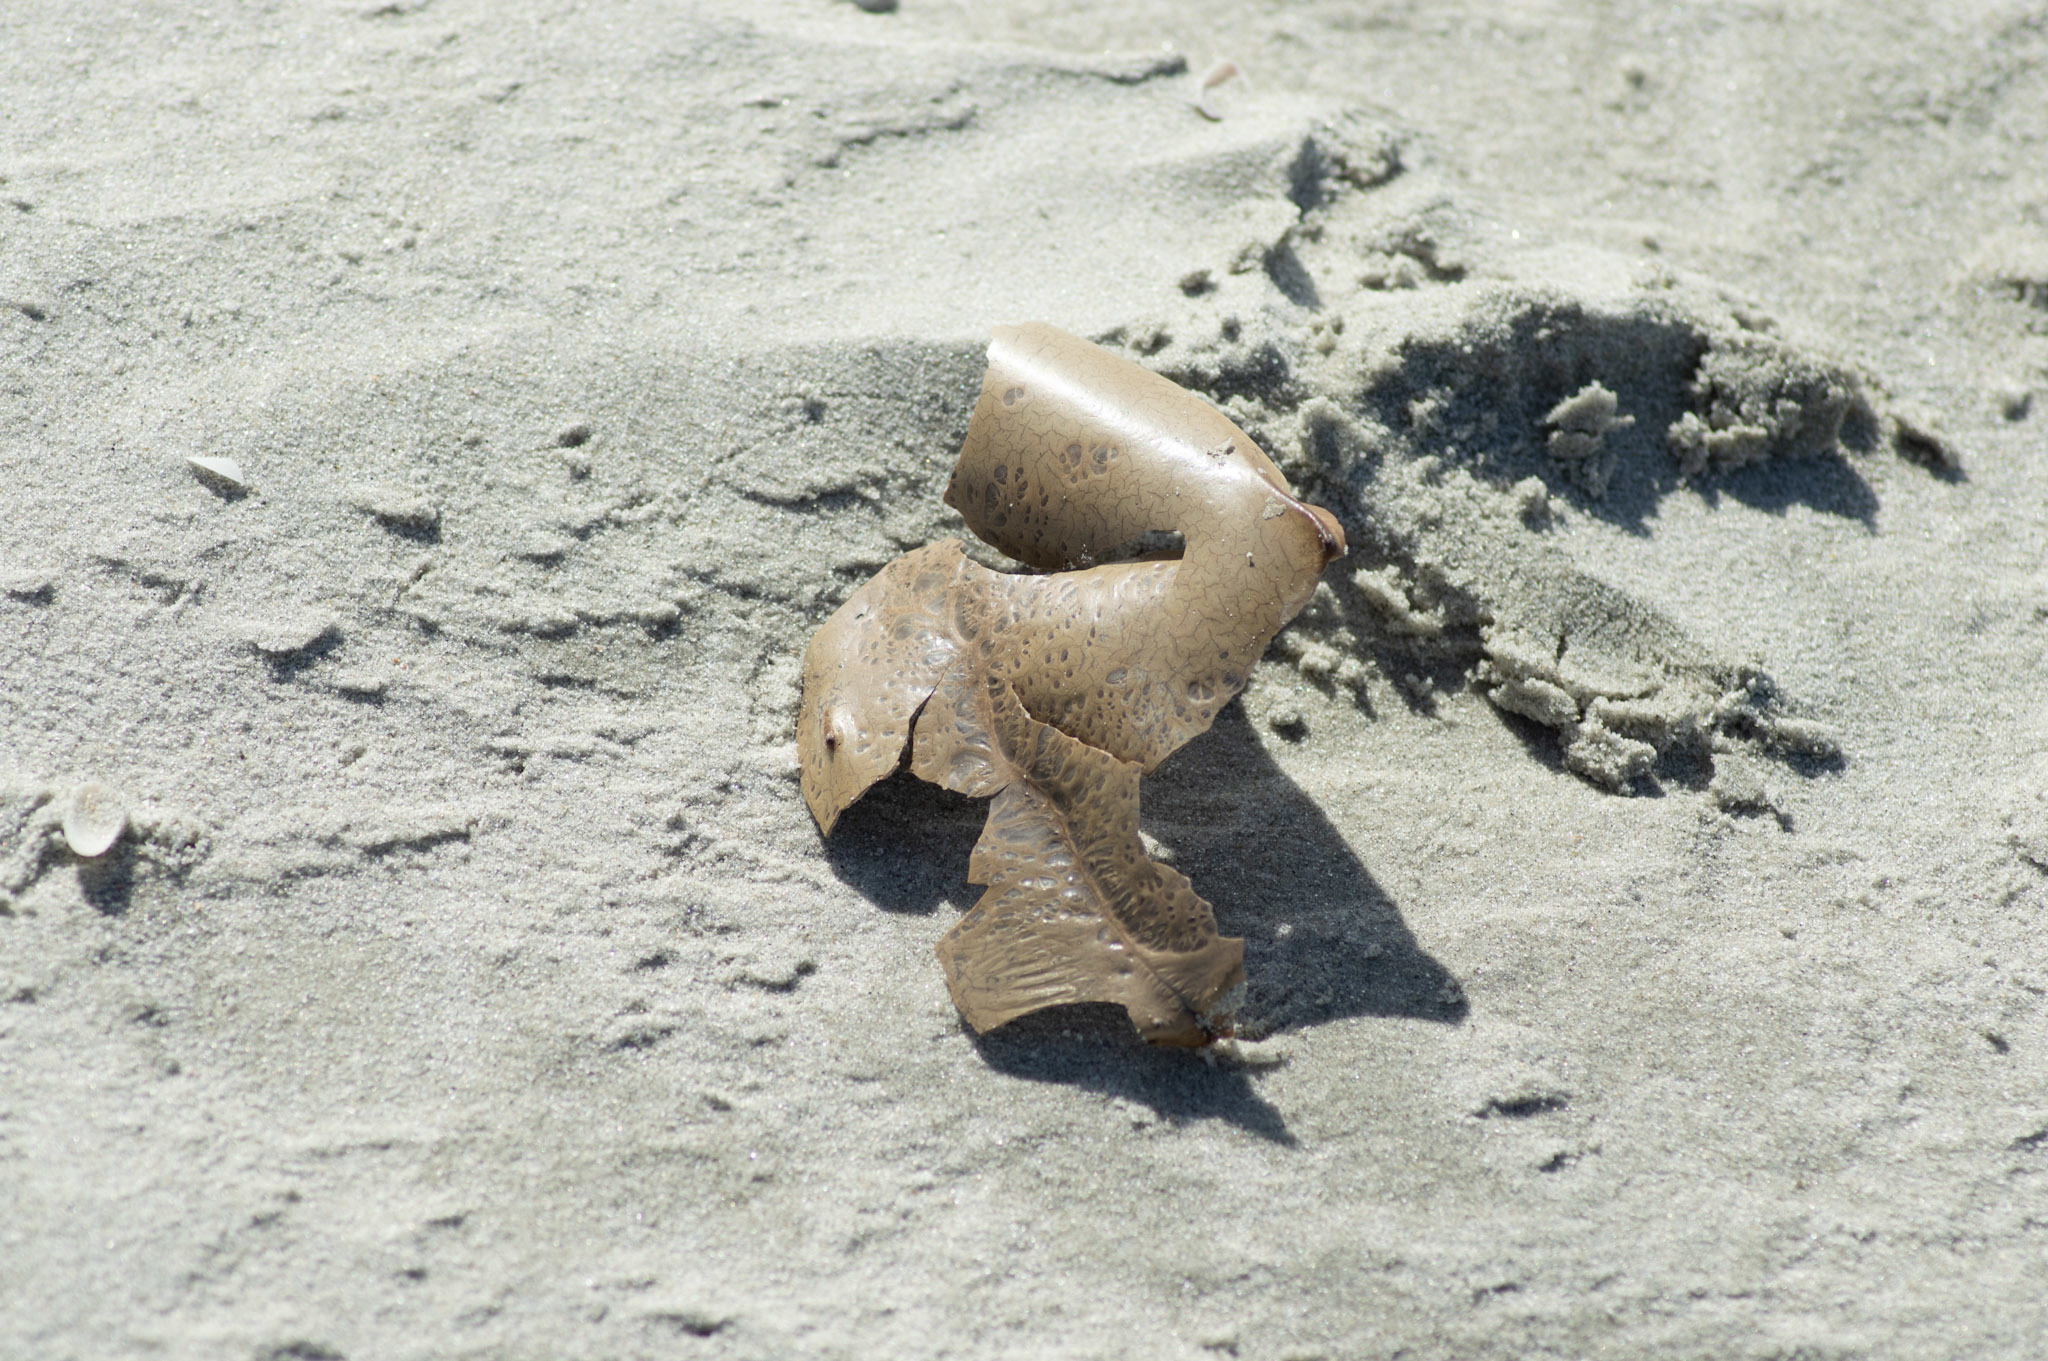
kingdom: Animalia
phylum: Arthropoda
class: Merostomata
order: Xiphosurida
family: Limulidae
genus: Limulus
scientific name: Limulus polyphemus
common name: Horseshoe crab
